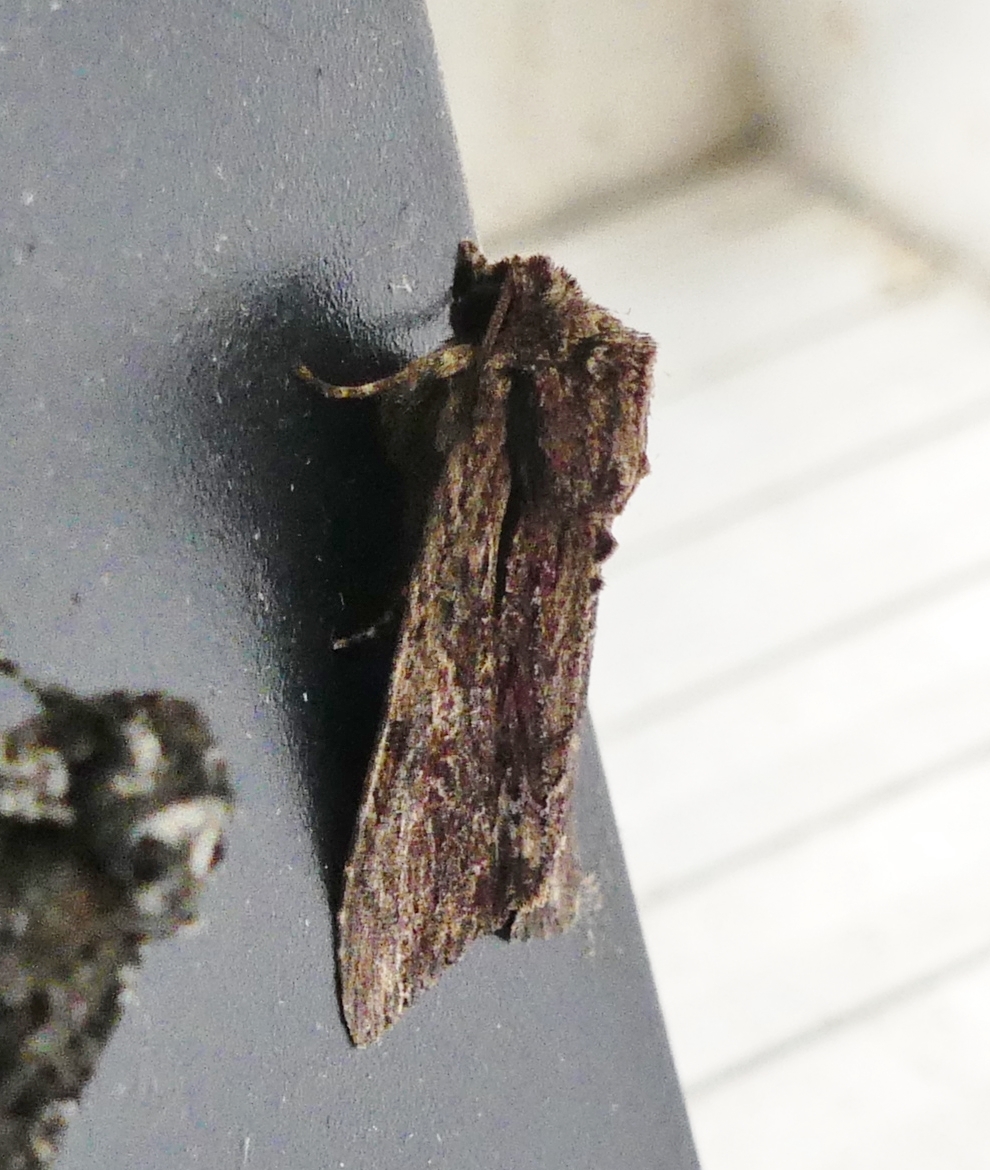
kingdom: Animalia
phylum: Arthropoda
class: Insecta
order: Lepidoptera
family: Noctuidae
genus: Achatia
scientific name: Achatia confusa
